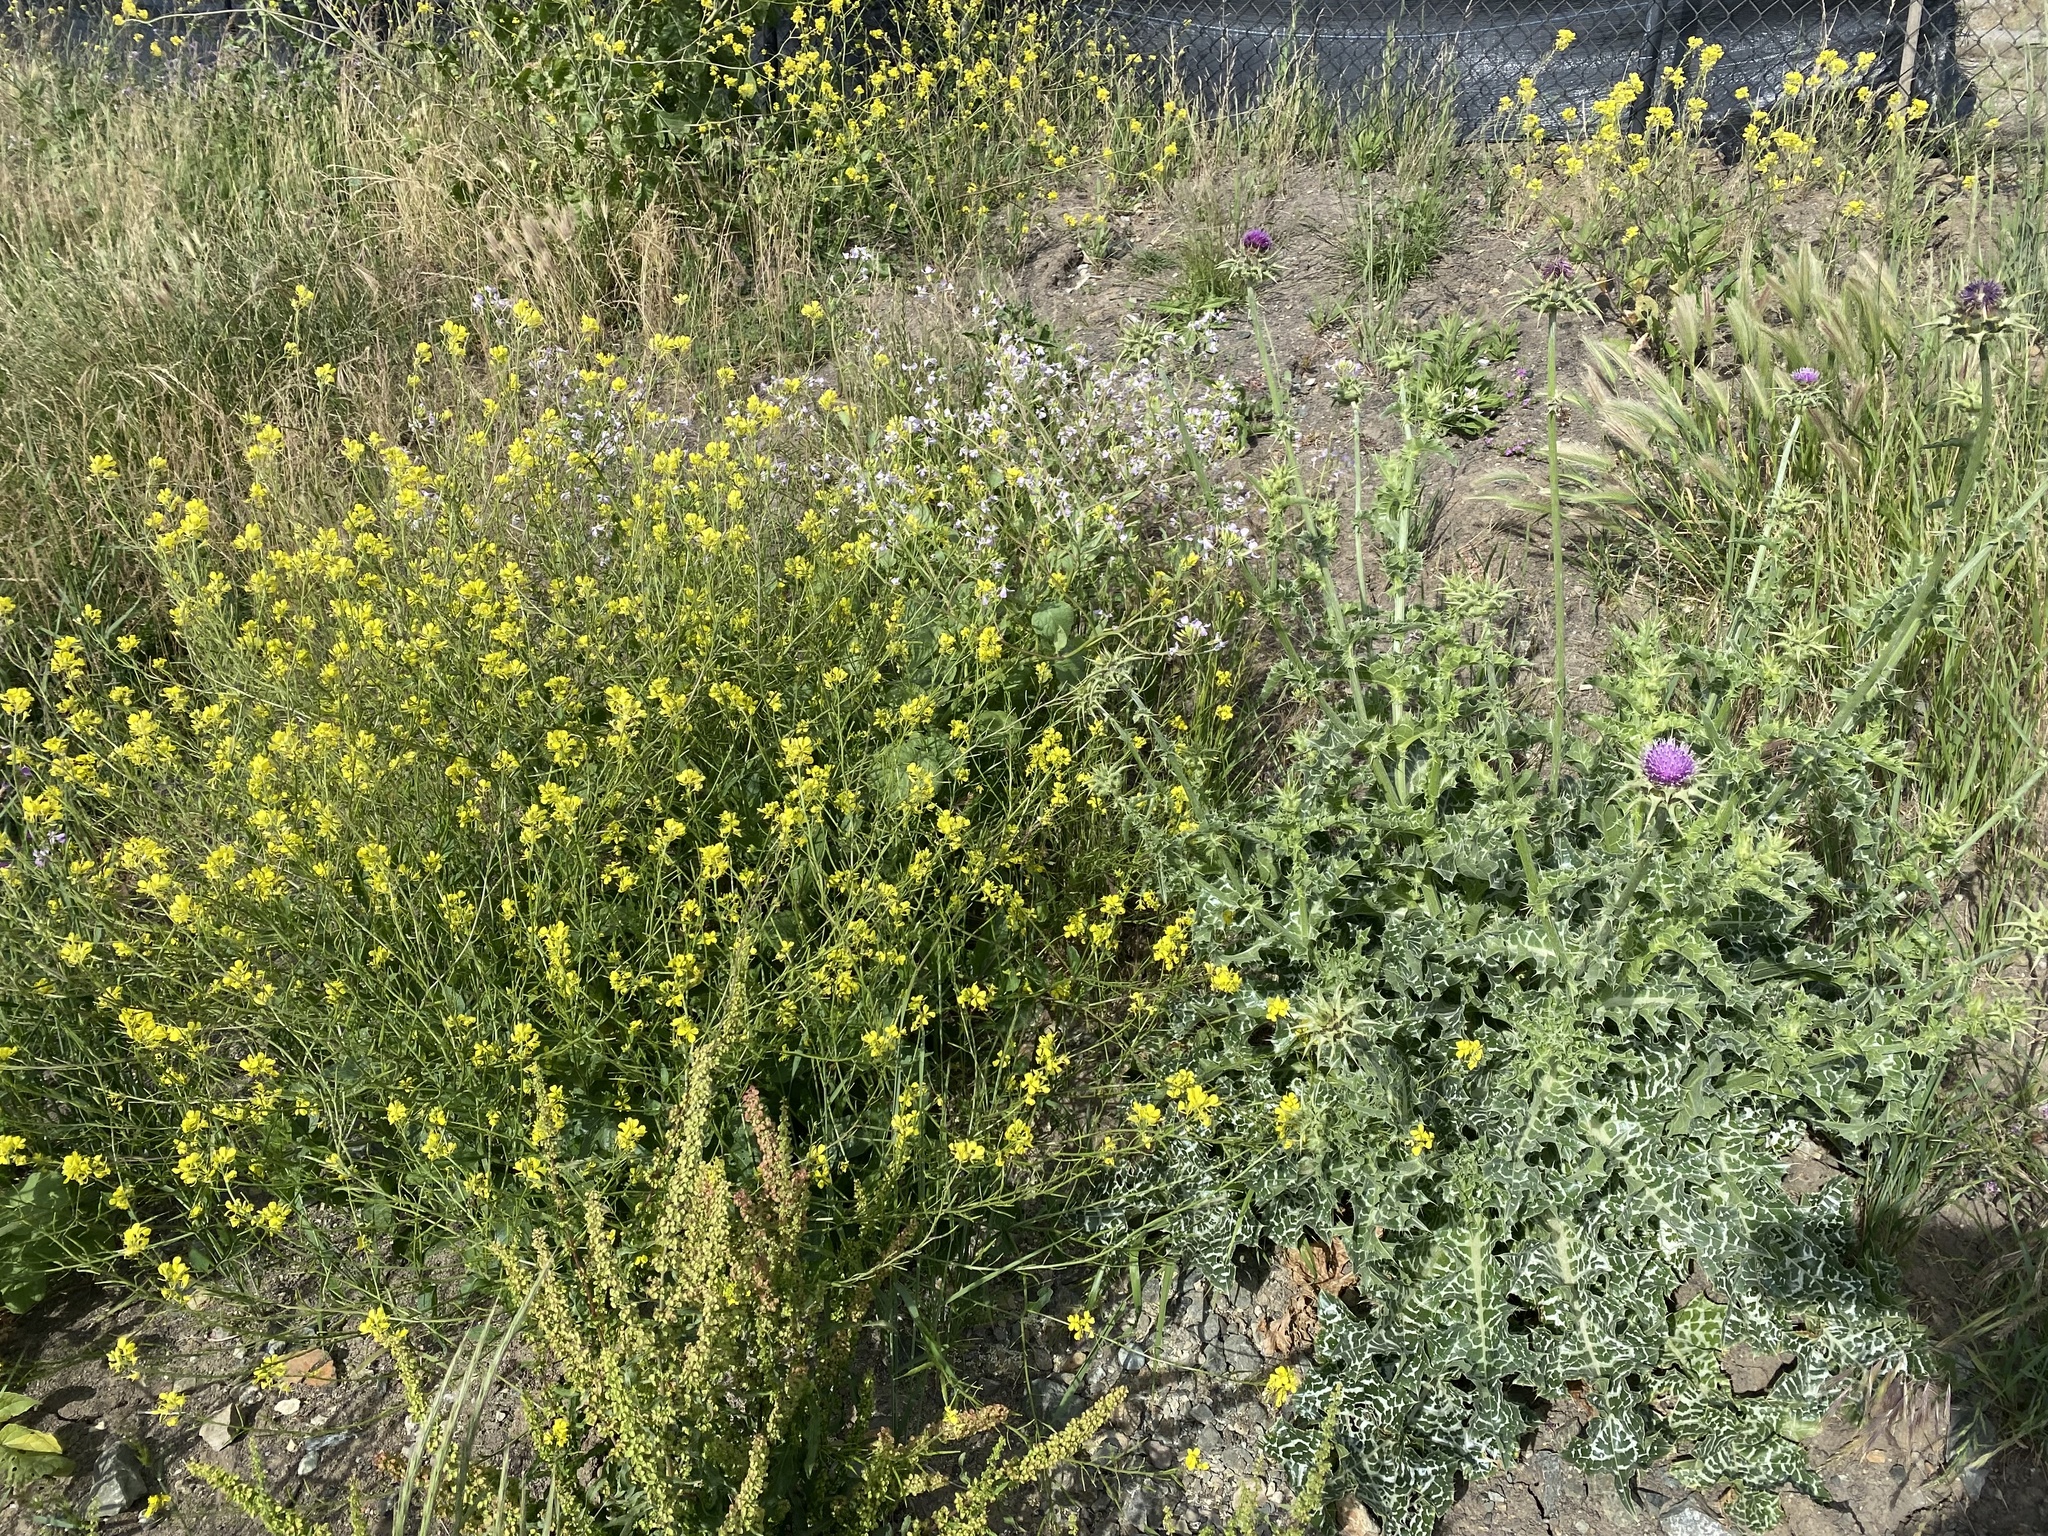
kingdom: Plantae
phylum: Tracheophyta
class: Magnoliopsida
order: Asterales
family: Asteraceae
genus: Silybum
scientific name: Silybum marianum
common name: Milk thistle
